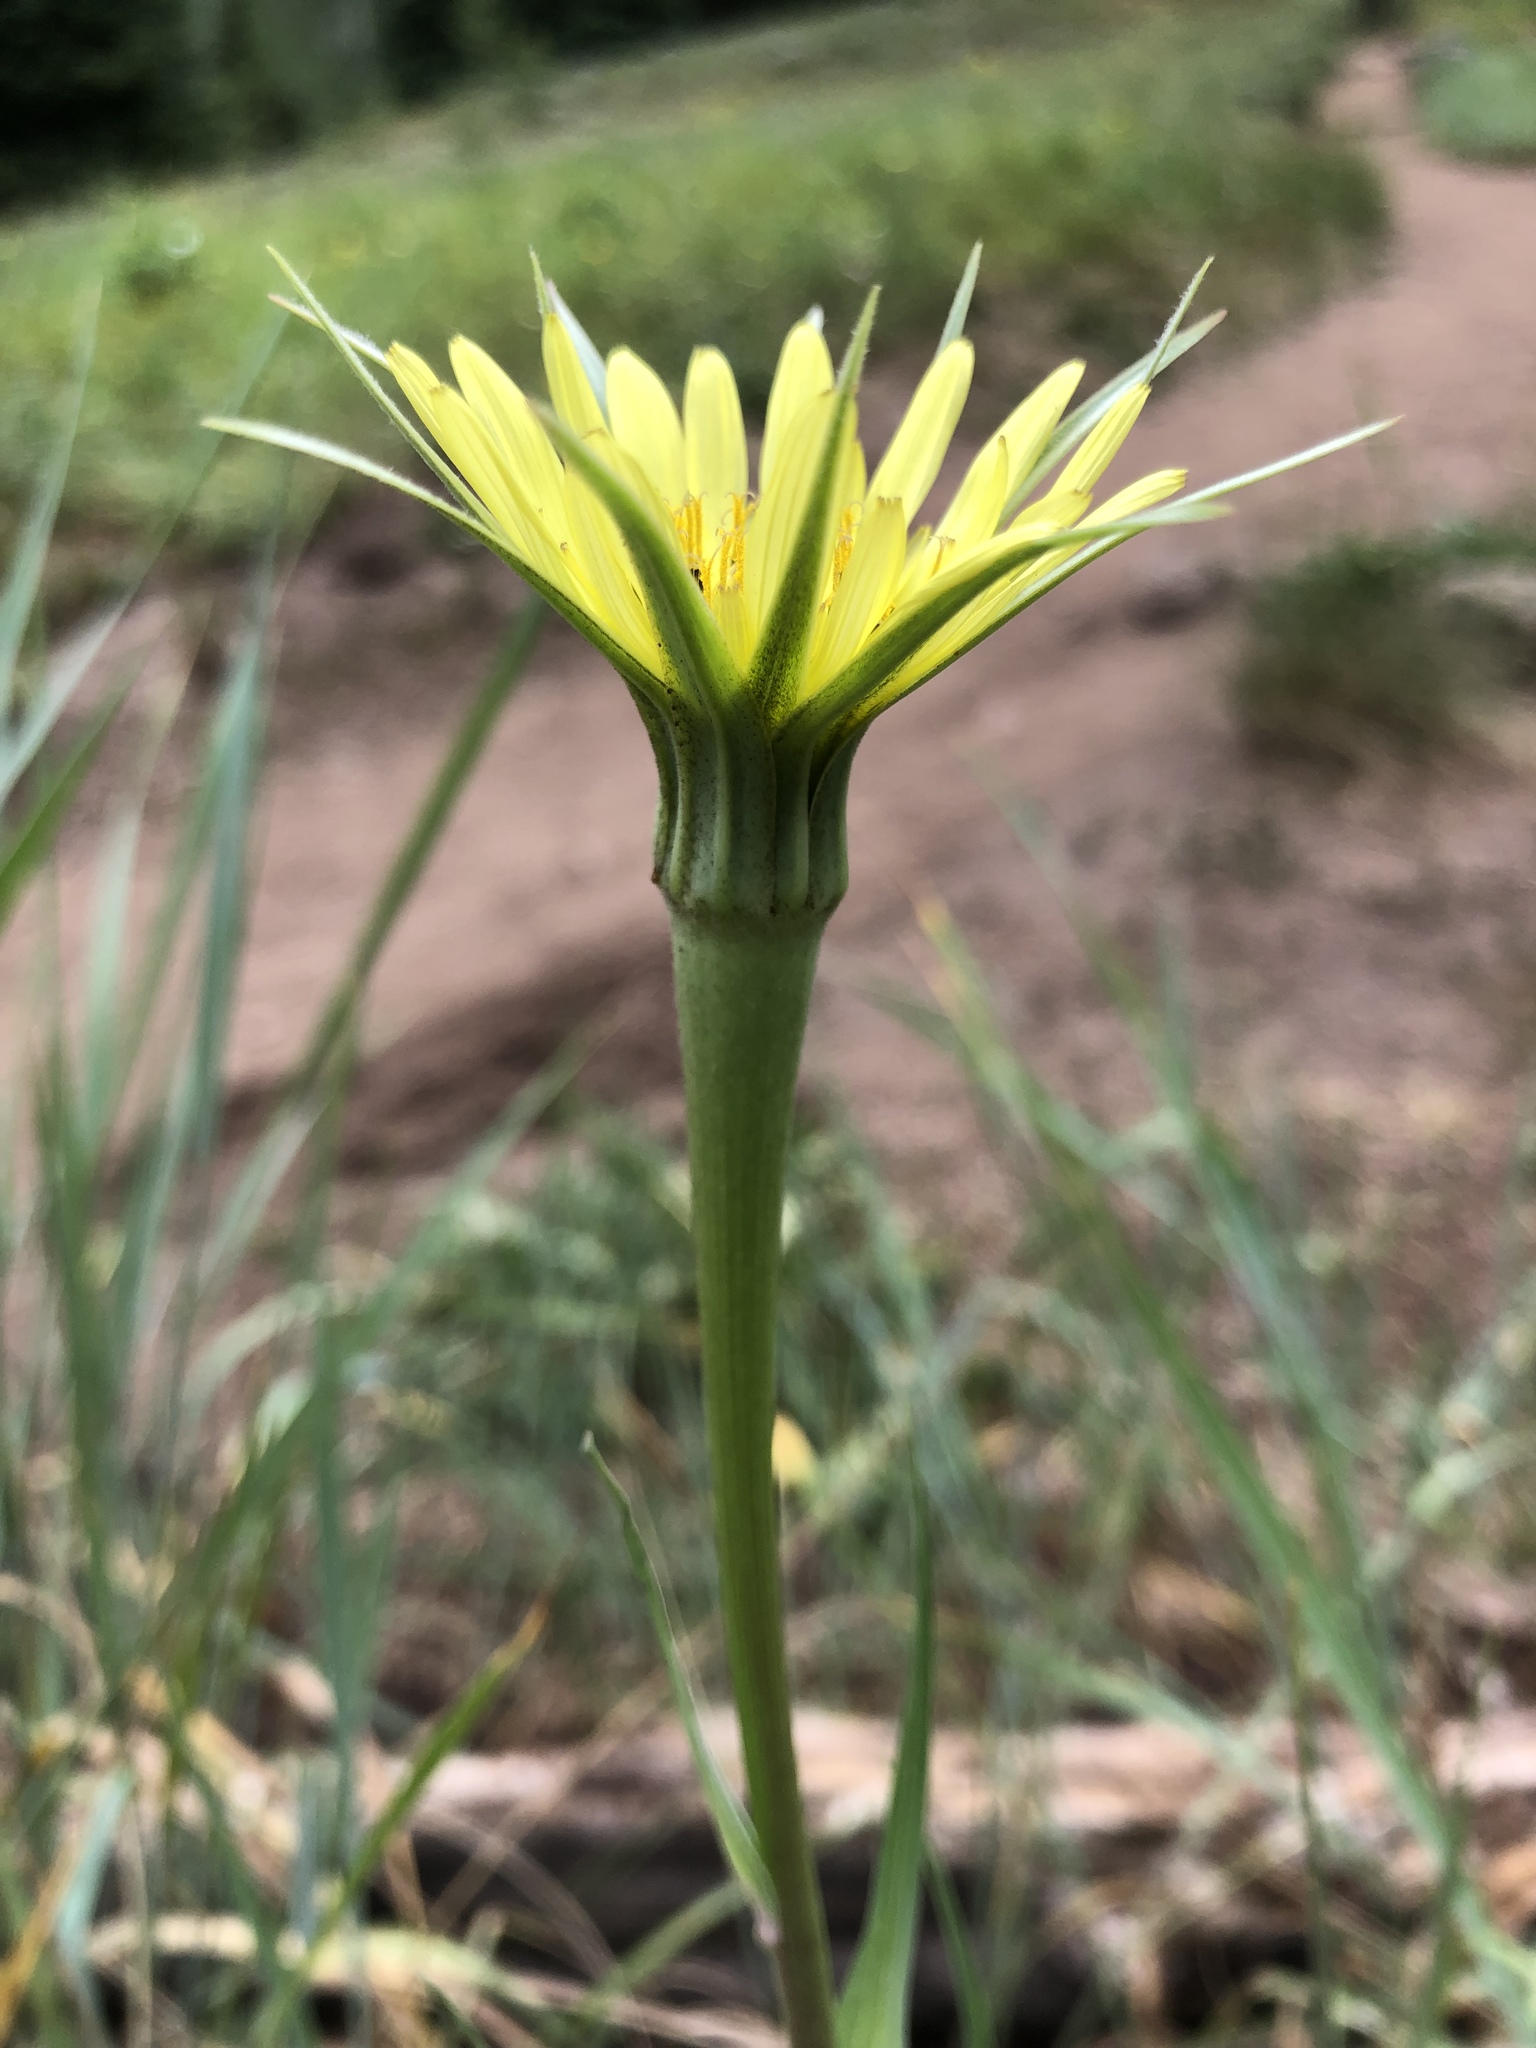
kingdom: Plantae
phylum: Tracheophyta
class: Magnoliopsida
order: Asterales
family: Asteraceae
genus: Tragopogon
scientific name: Tragopogon dubius
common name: Yellow salsify
